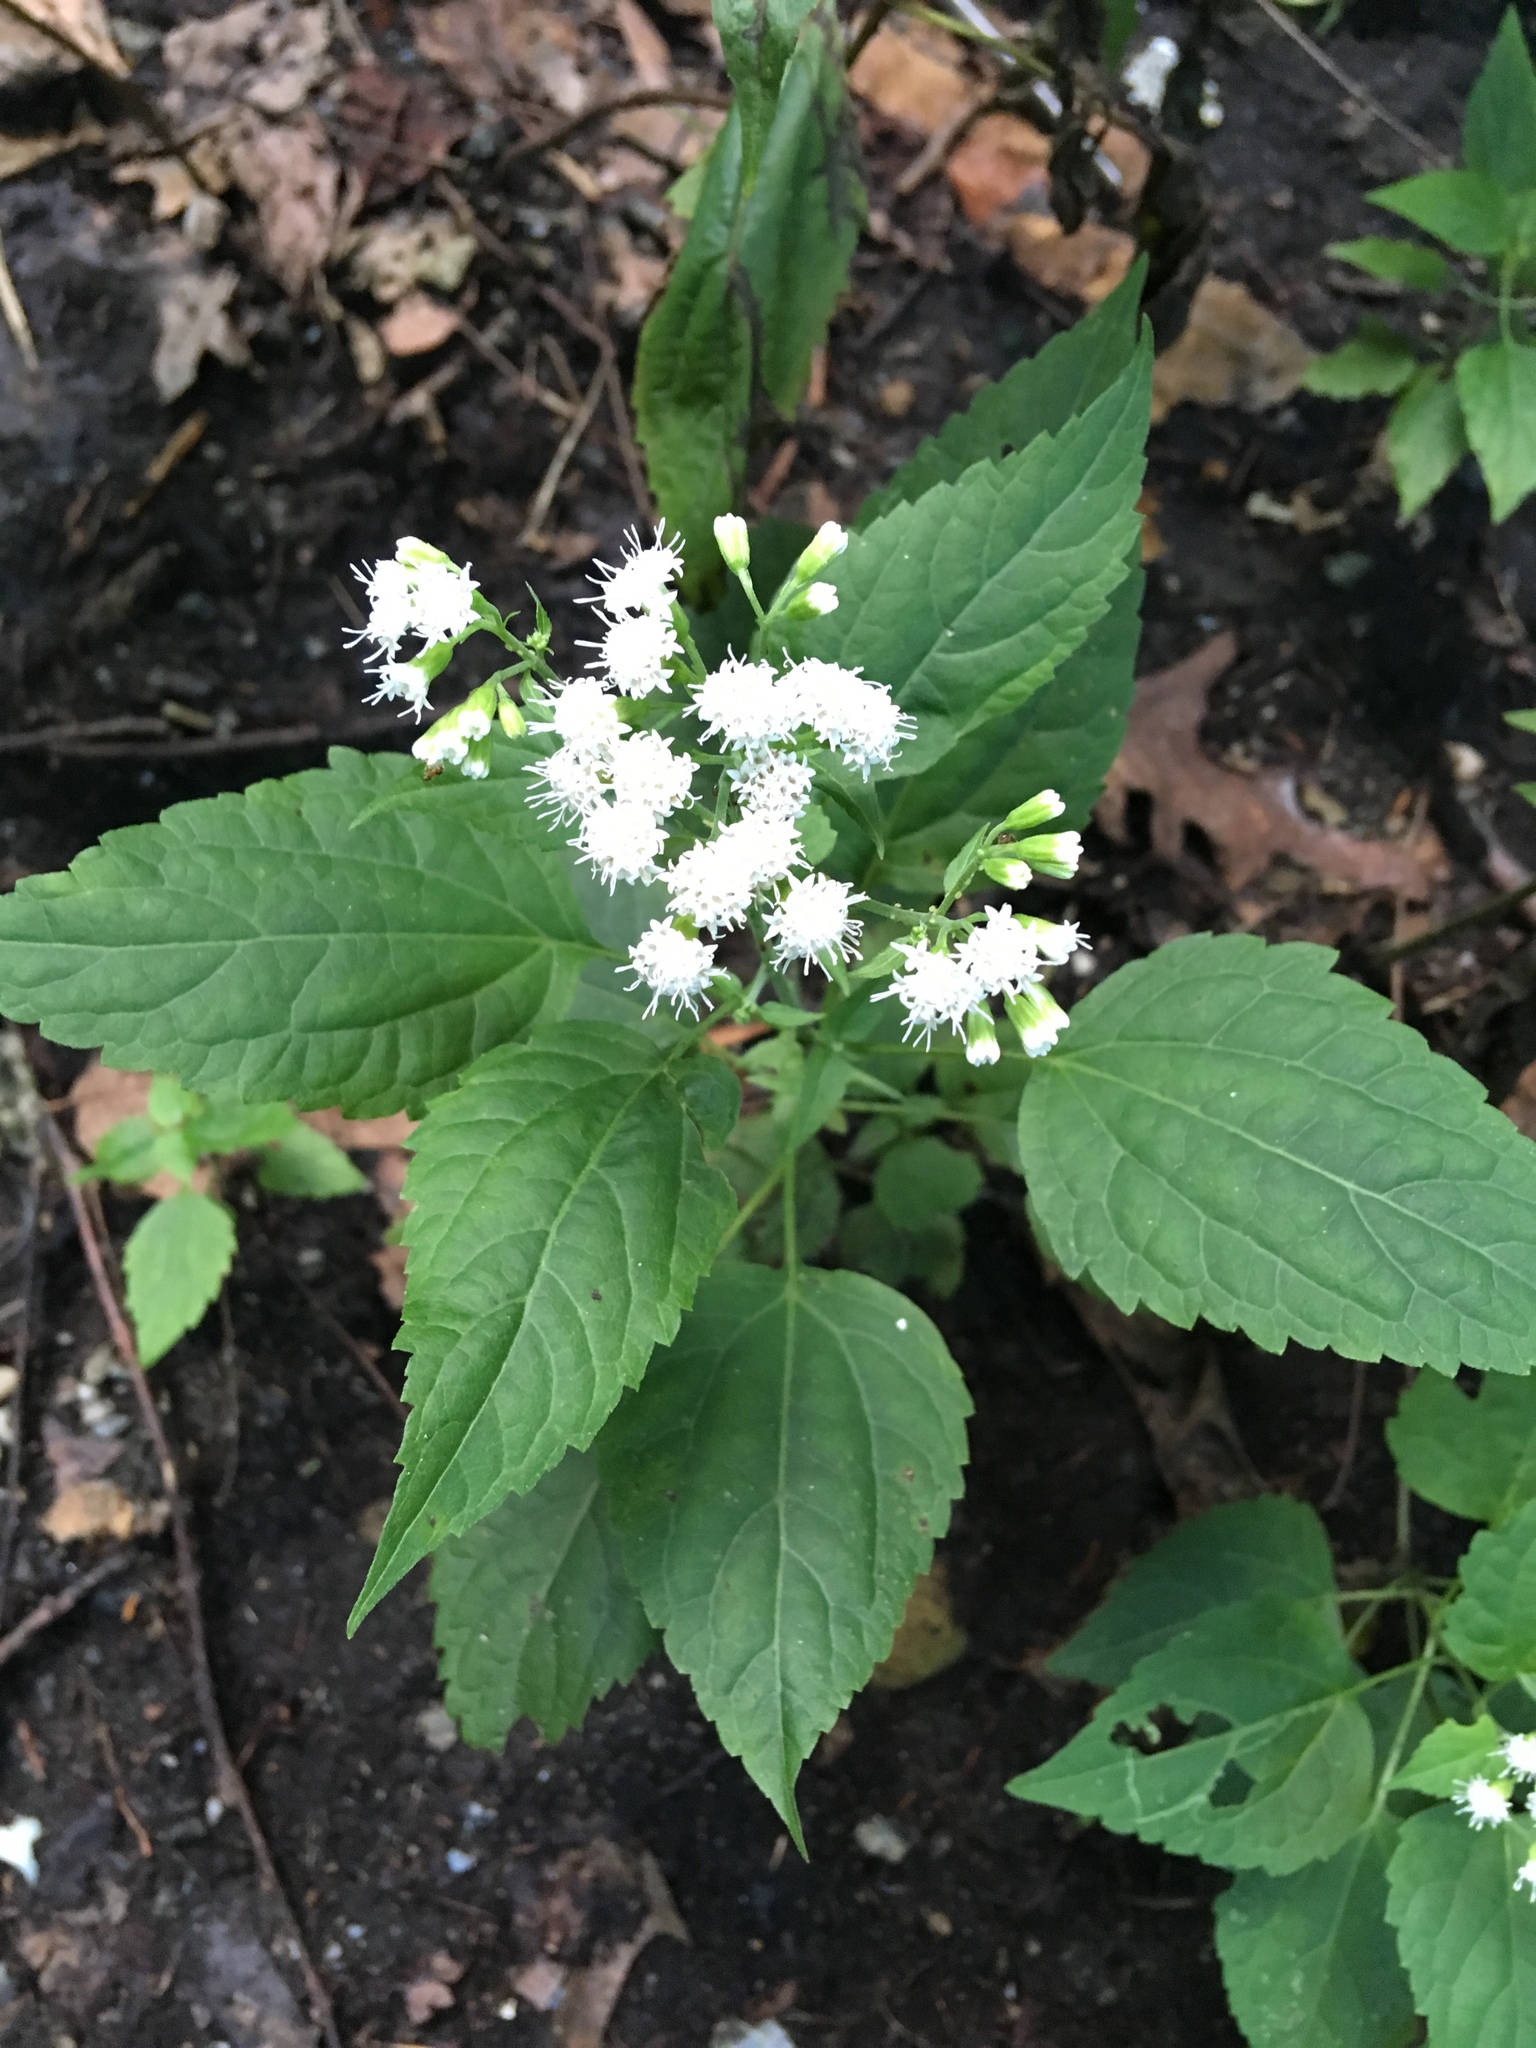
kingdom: Plantae
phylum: Tracheophyta
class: Magnoliopsida
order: Asterales
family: Asteraceae
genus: Ageratina
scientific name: Ageratina altissima
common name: White snakeroot
